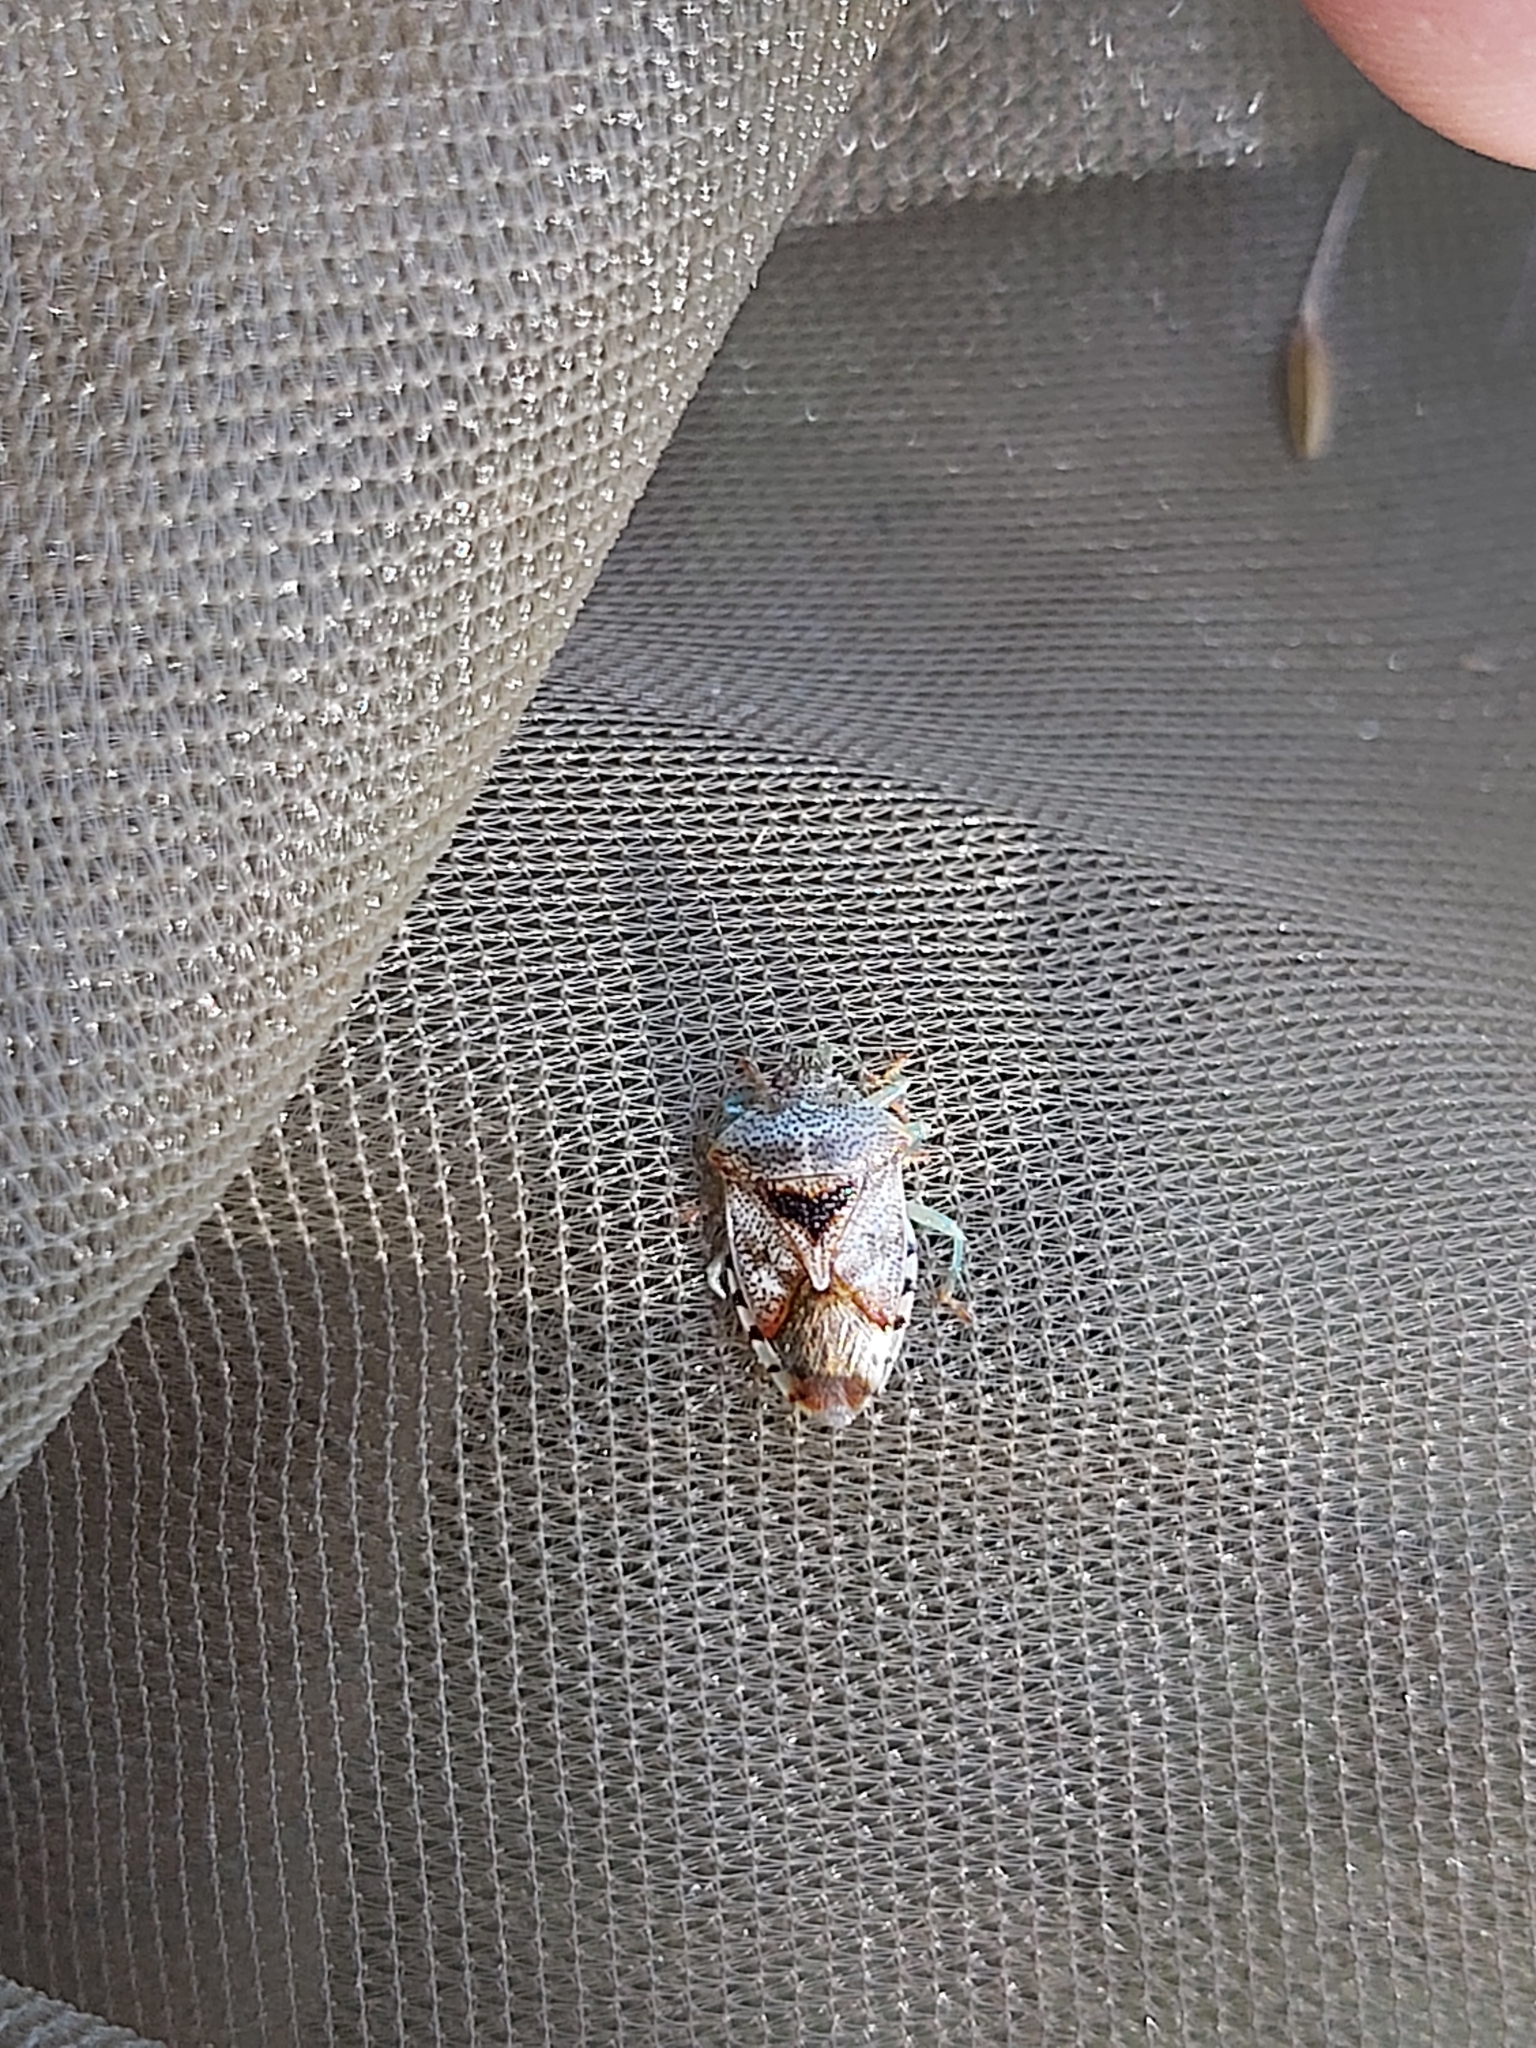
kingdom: Animalia
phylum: Arthropoda
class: Insecta
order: Hemiptera
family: Acanthosomatidae
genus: Elasmucha
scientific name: Elasmucha grisea
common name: Parent bug
